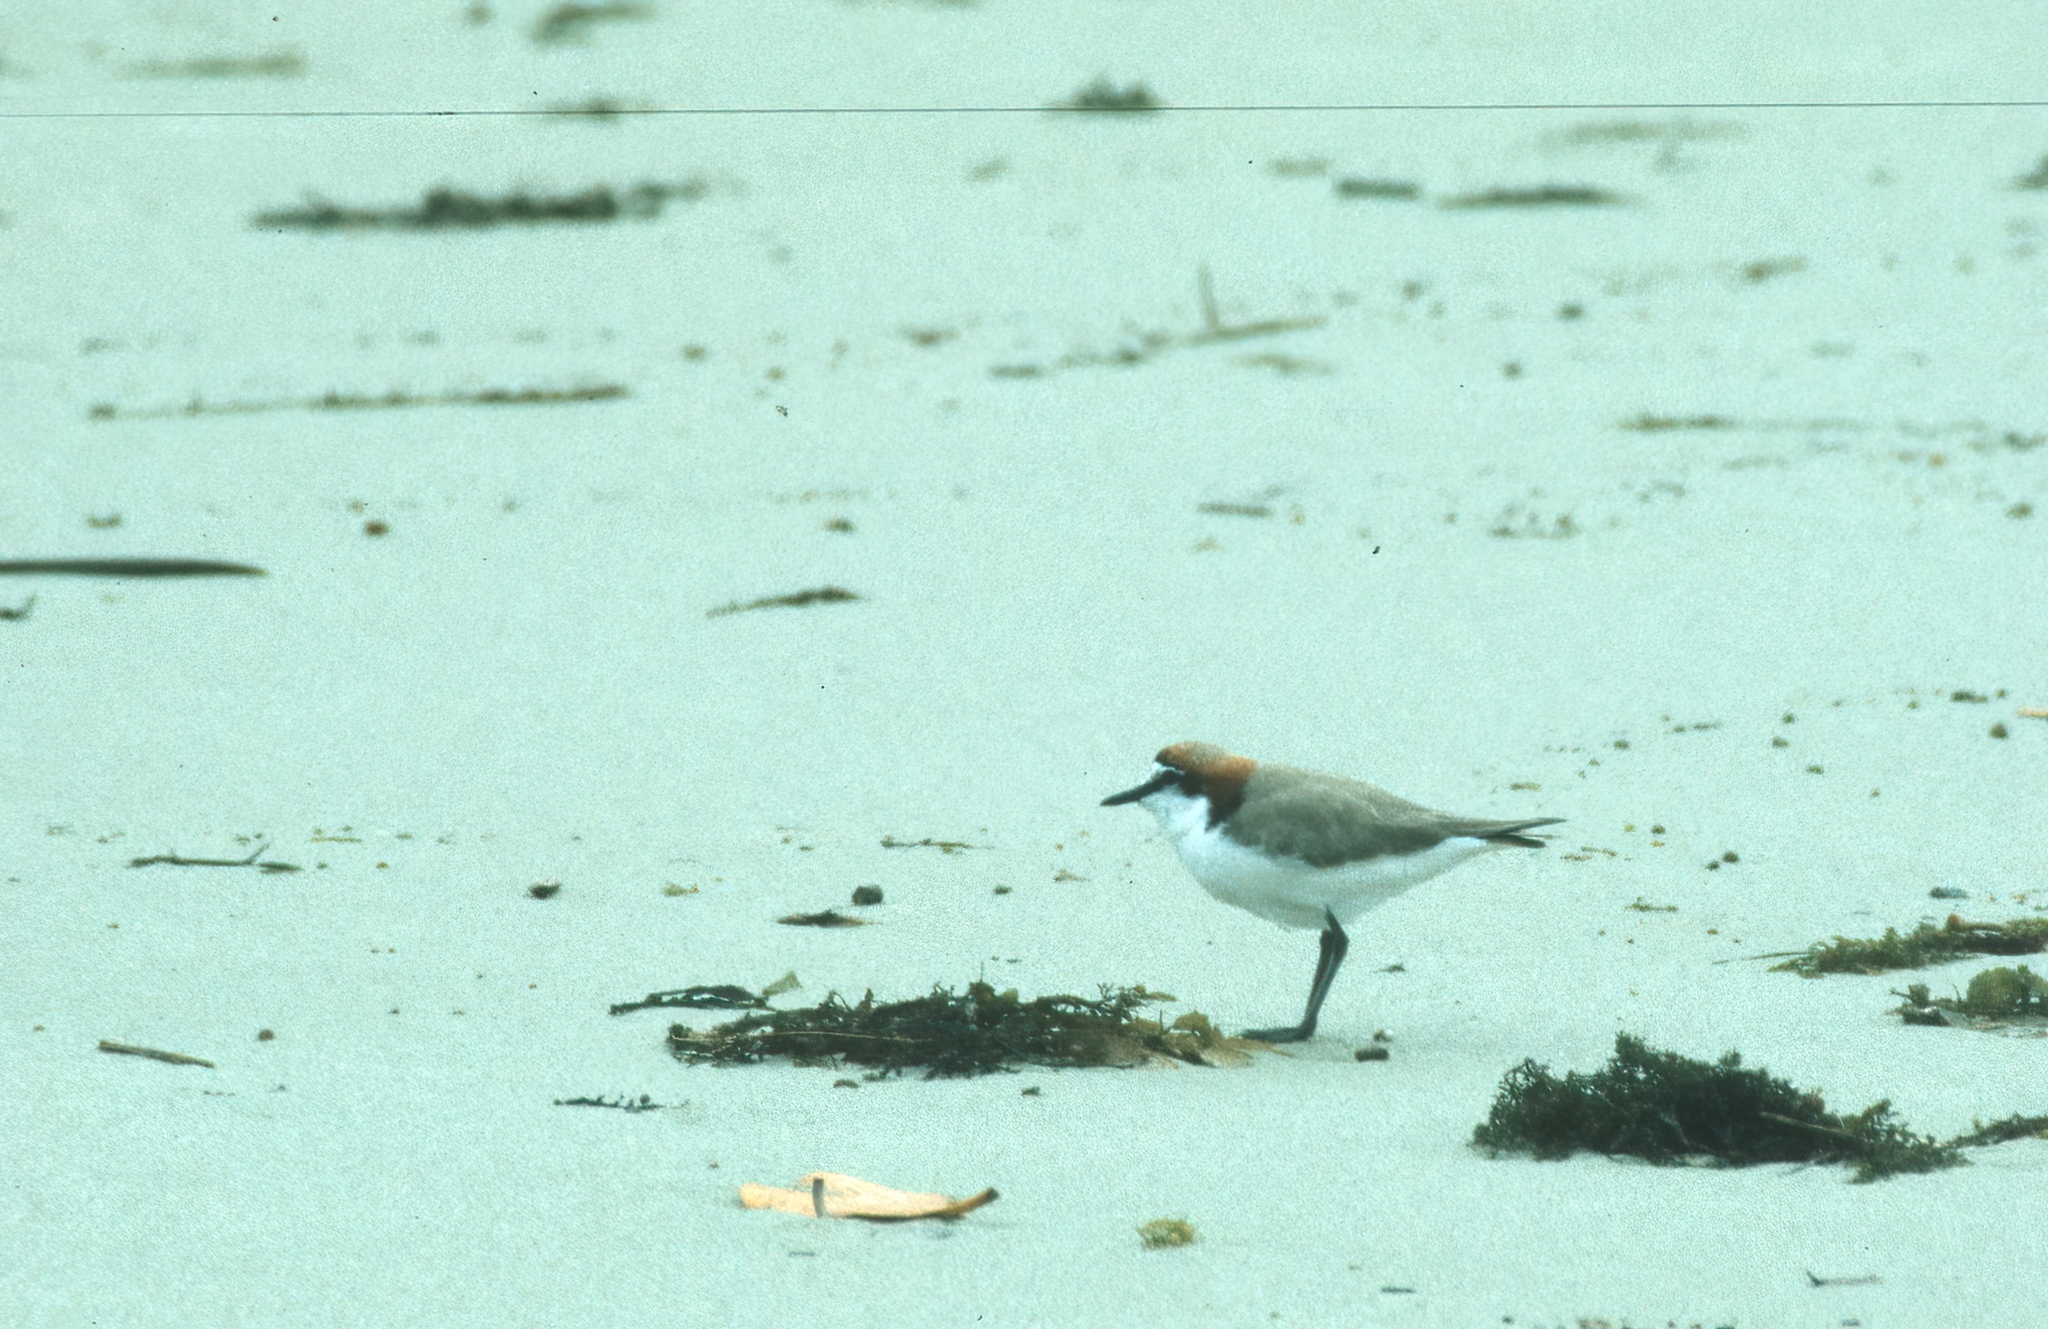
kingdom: Animalia
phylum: Chordata
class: Aves
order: Charadriiformes
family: Charadriidae
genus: Anarhynchus
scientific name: Anarhynchus
